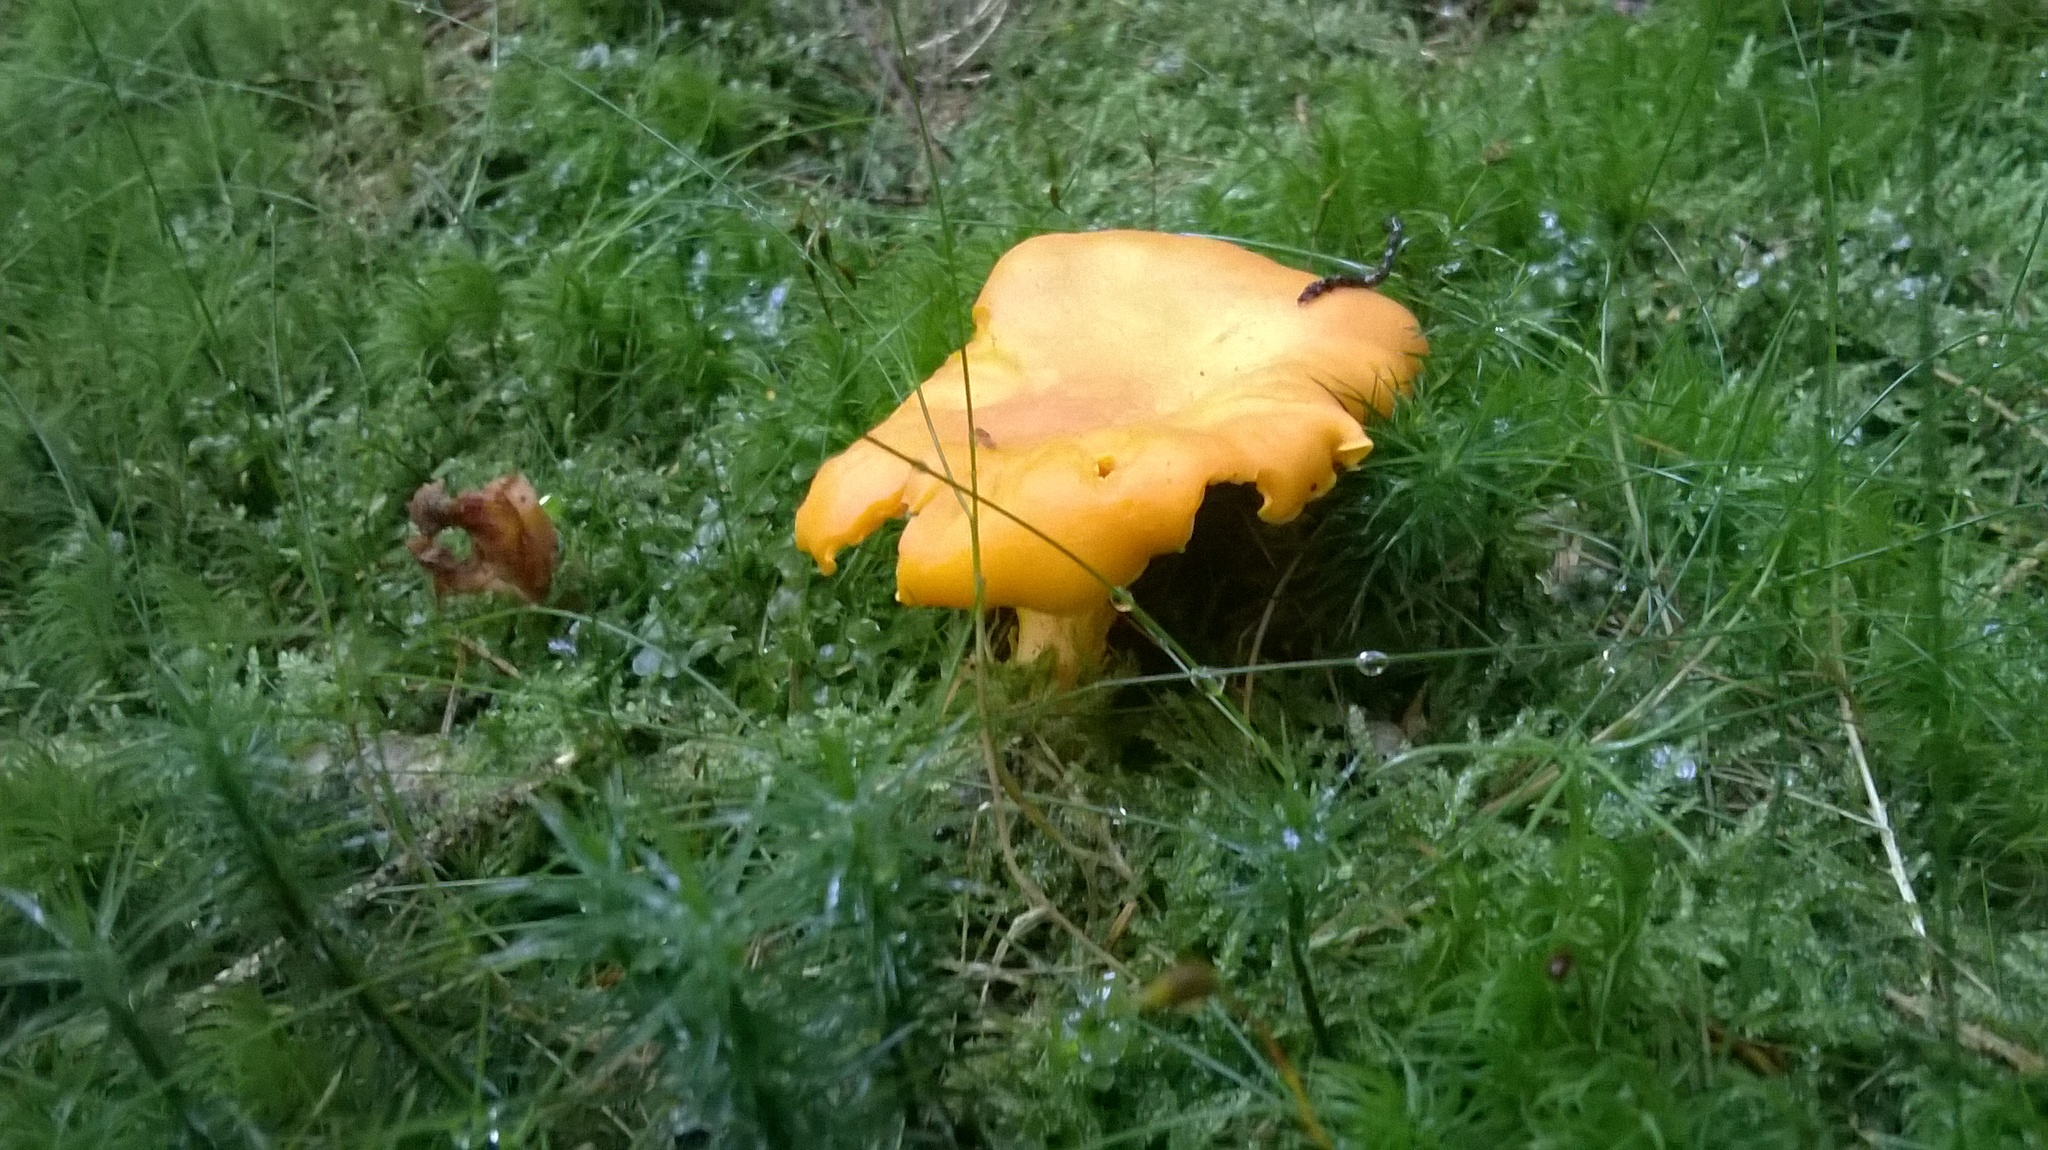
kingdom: Fungi
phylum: Basidiomycota
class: Agaricomycetes
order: Cantharellales
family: Hydnaceae
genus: Cantharellus
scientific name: Cantharellus cibarius
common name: Chanterelle
